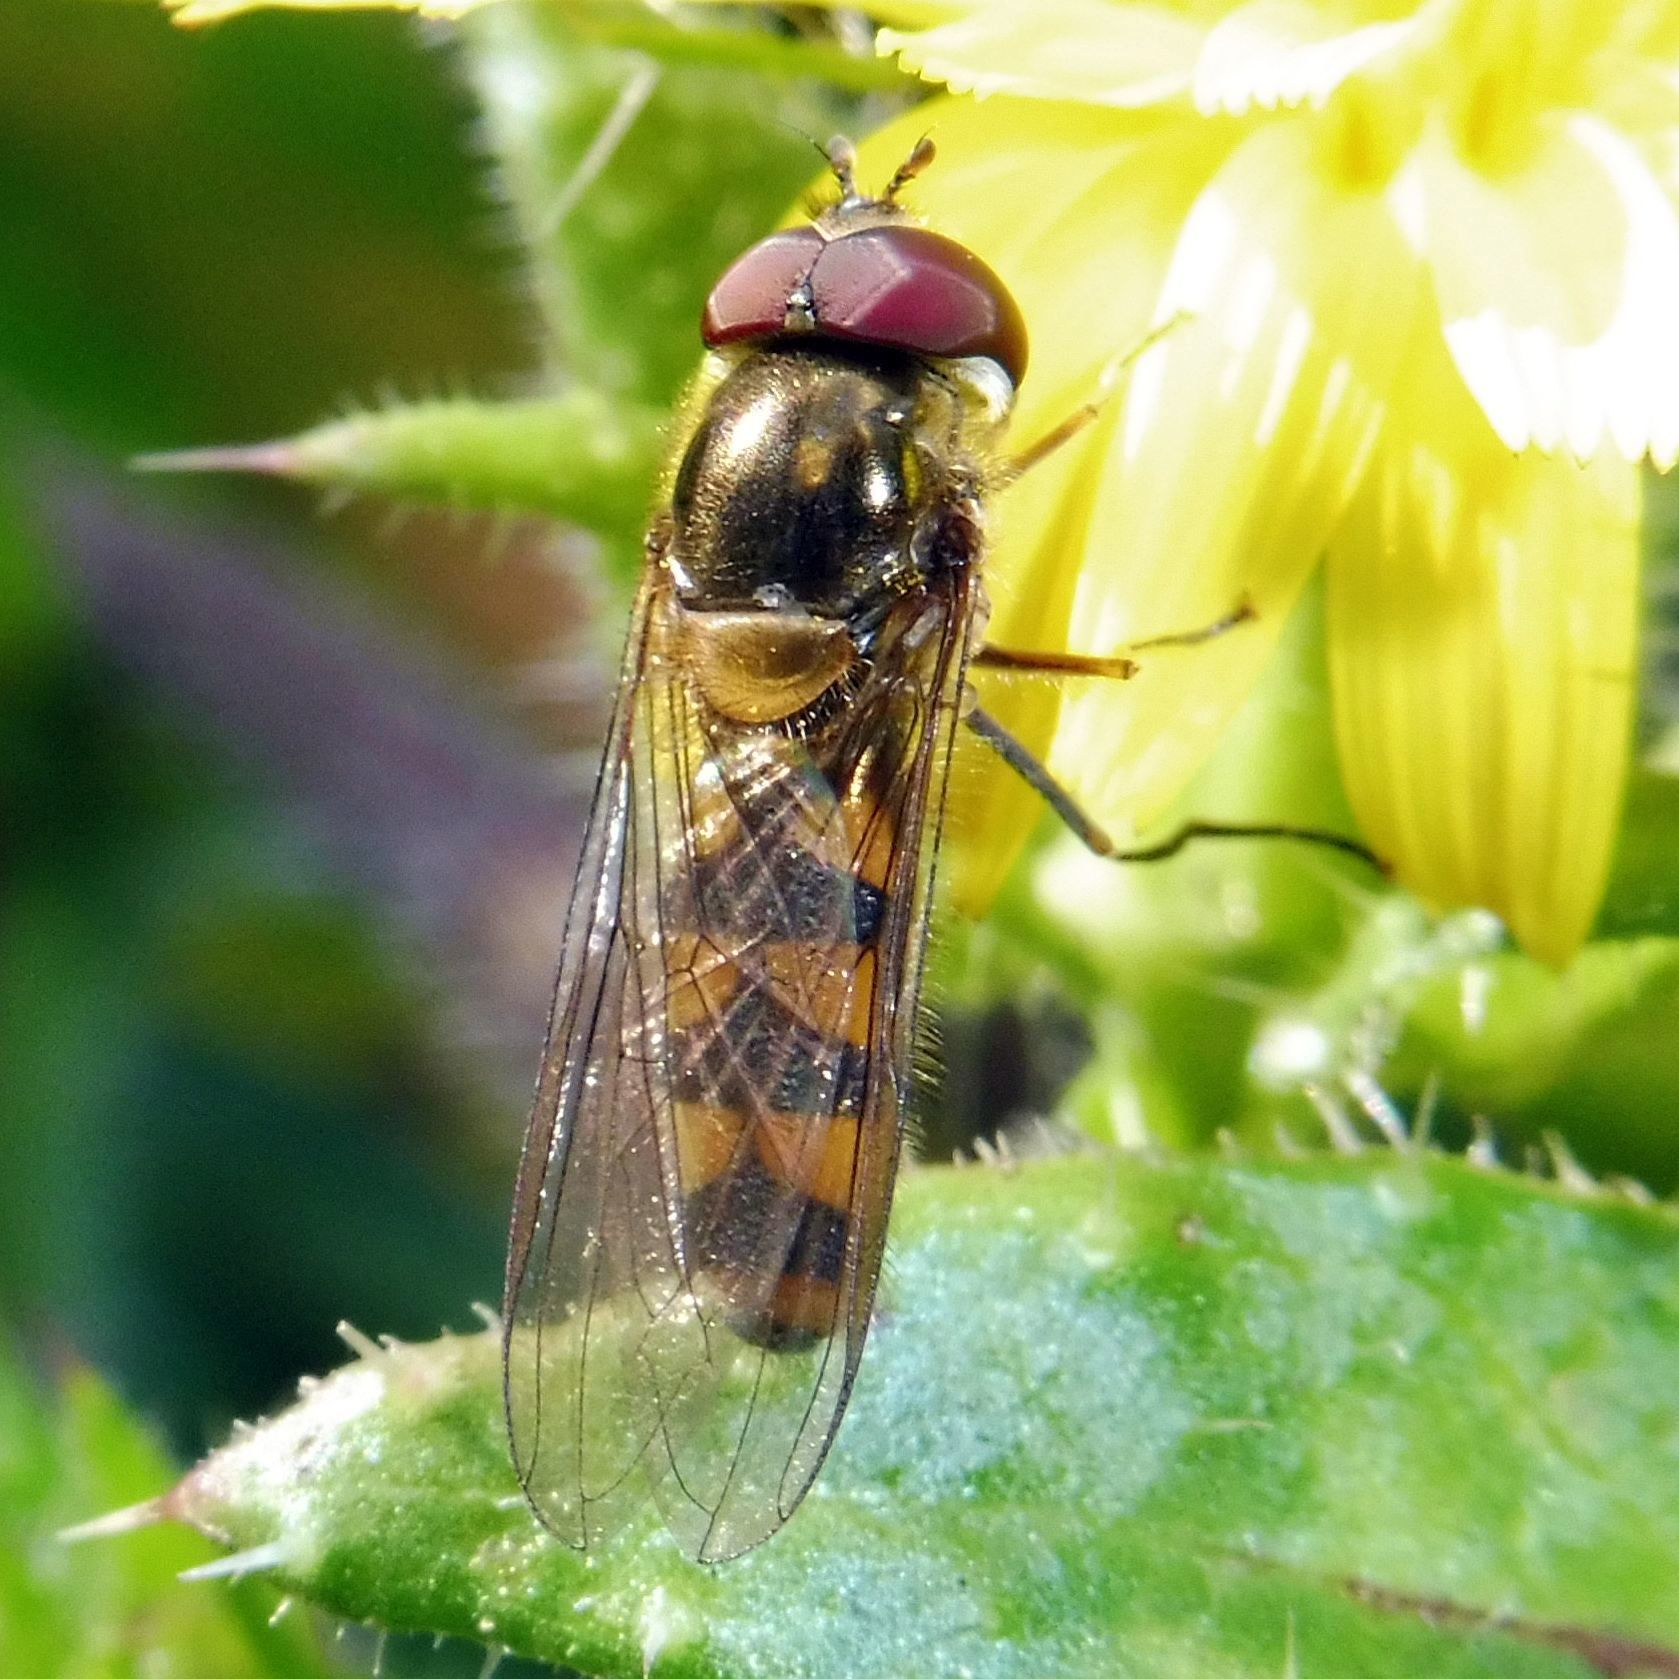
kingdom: Animalia
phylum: Arthropoda
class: Insecta
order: Diptera
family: Syrphidae
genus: Meliscaeva
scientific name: Meliscaeva auricollis
